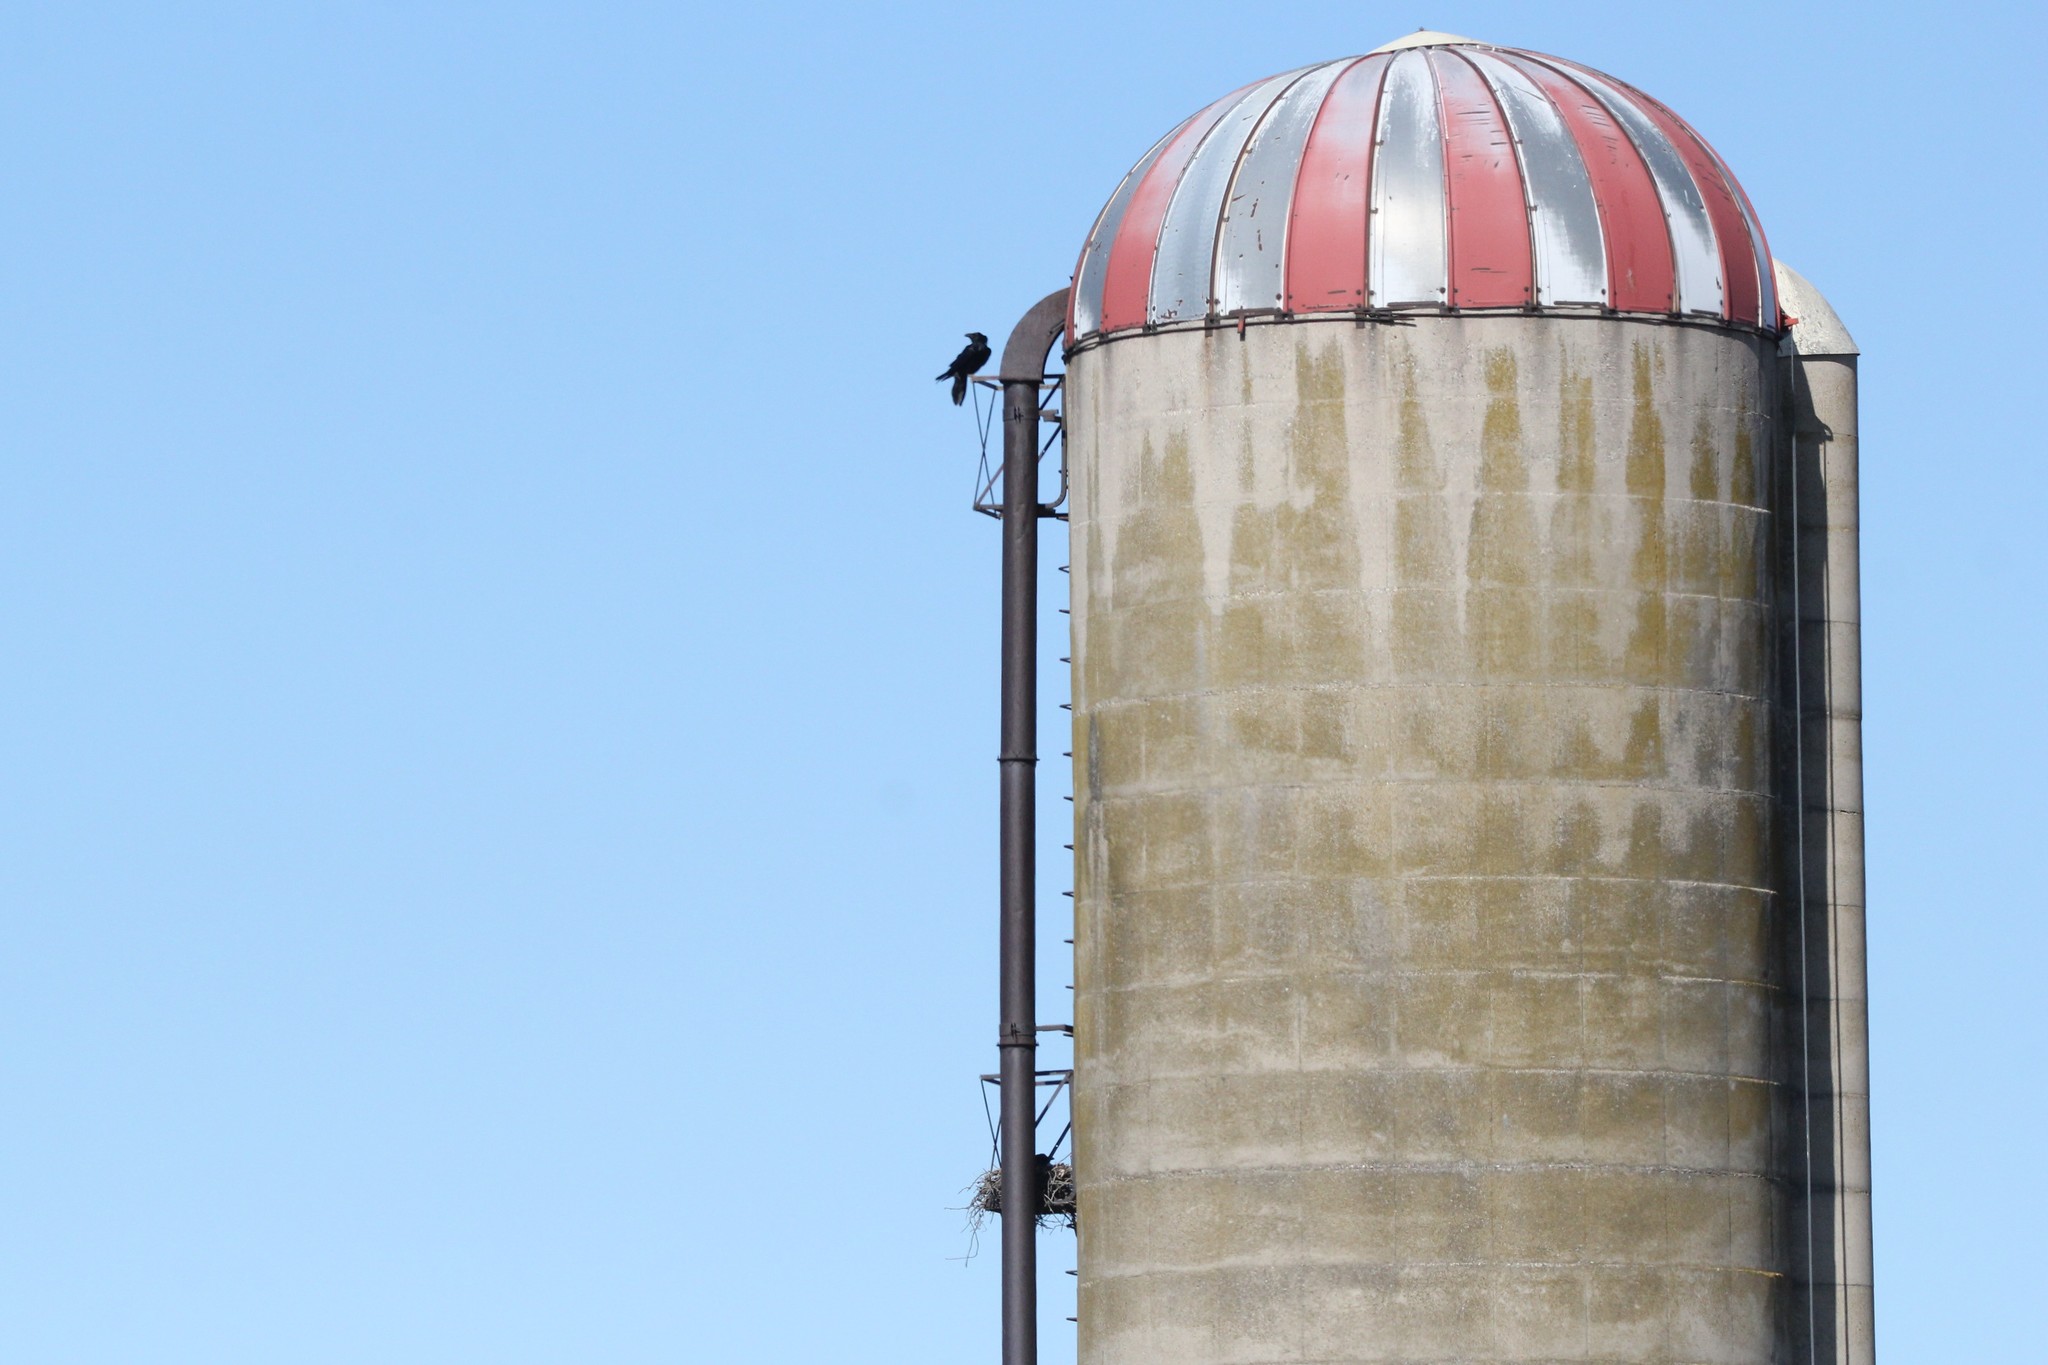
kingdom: Animalia
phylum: Chordata
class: Aves
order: Passeriformes
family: Corvidae
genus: Corvus
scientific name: Corvus corax
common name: Common raven
